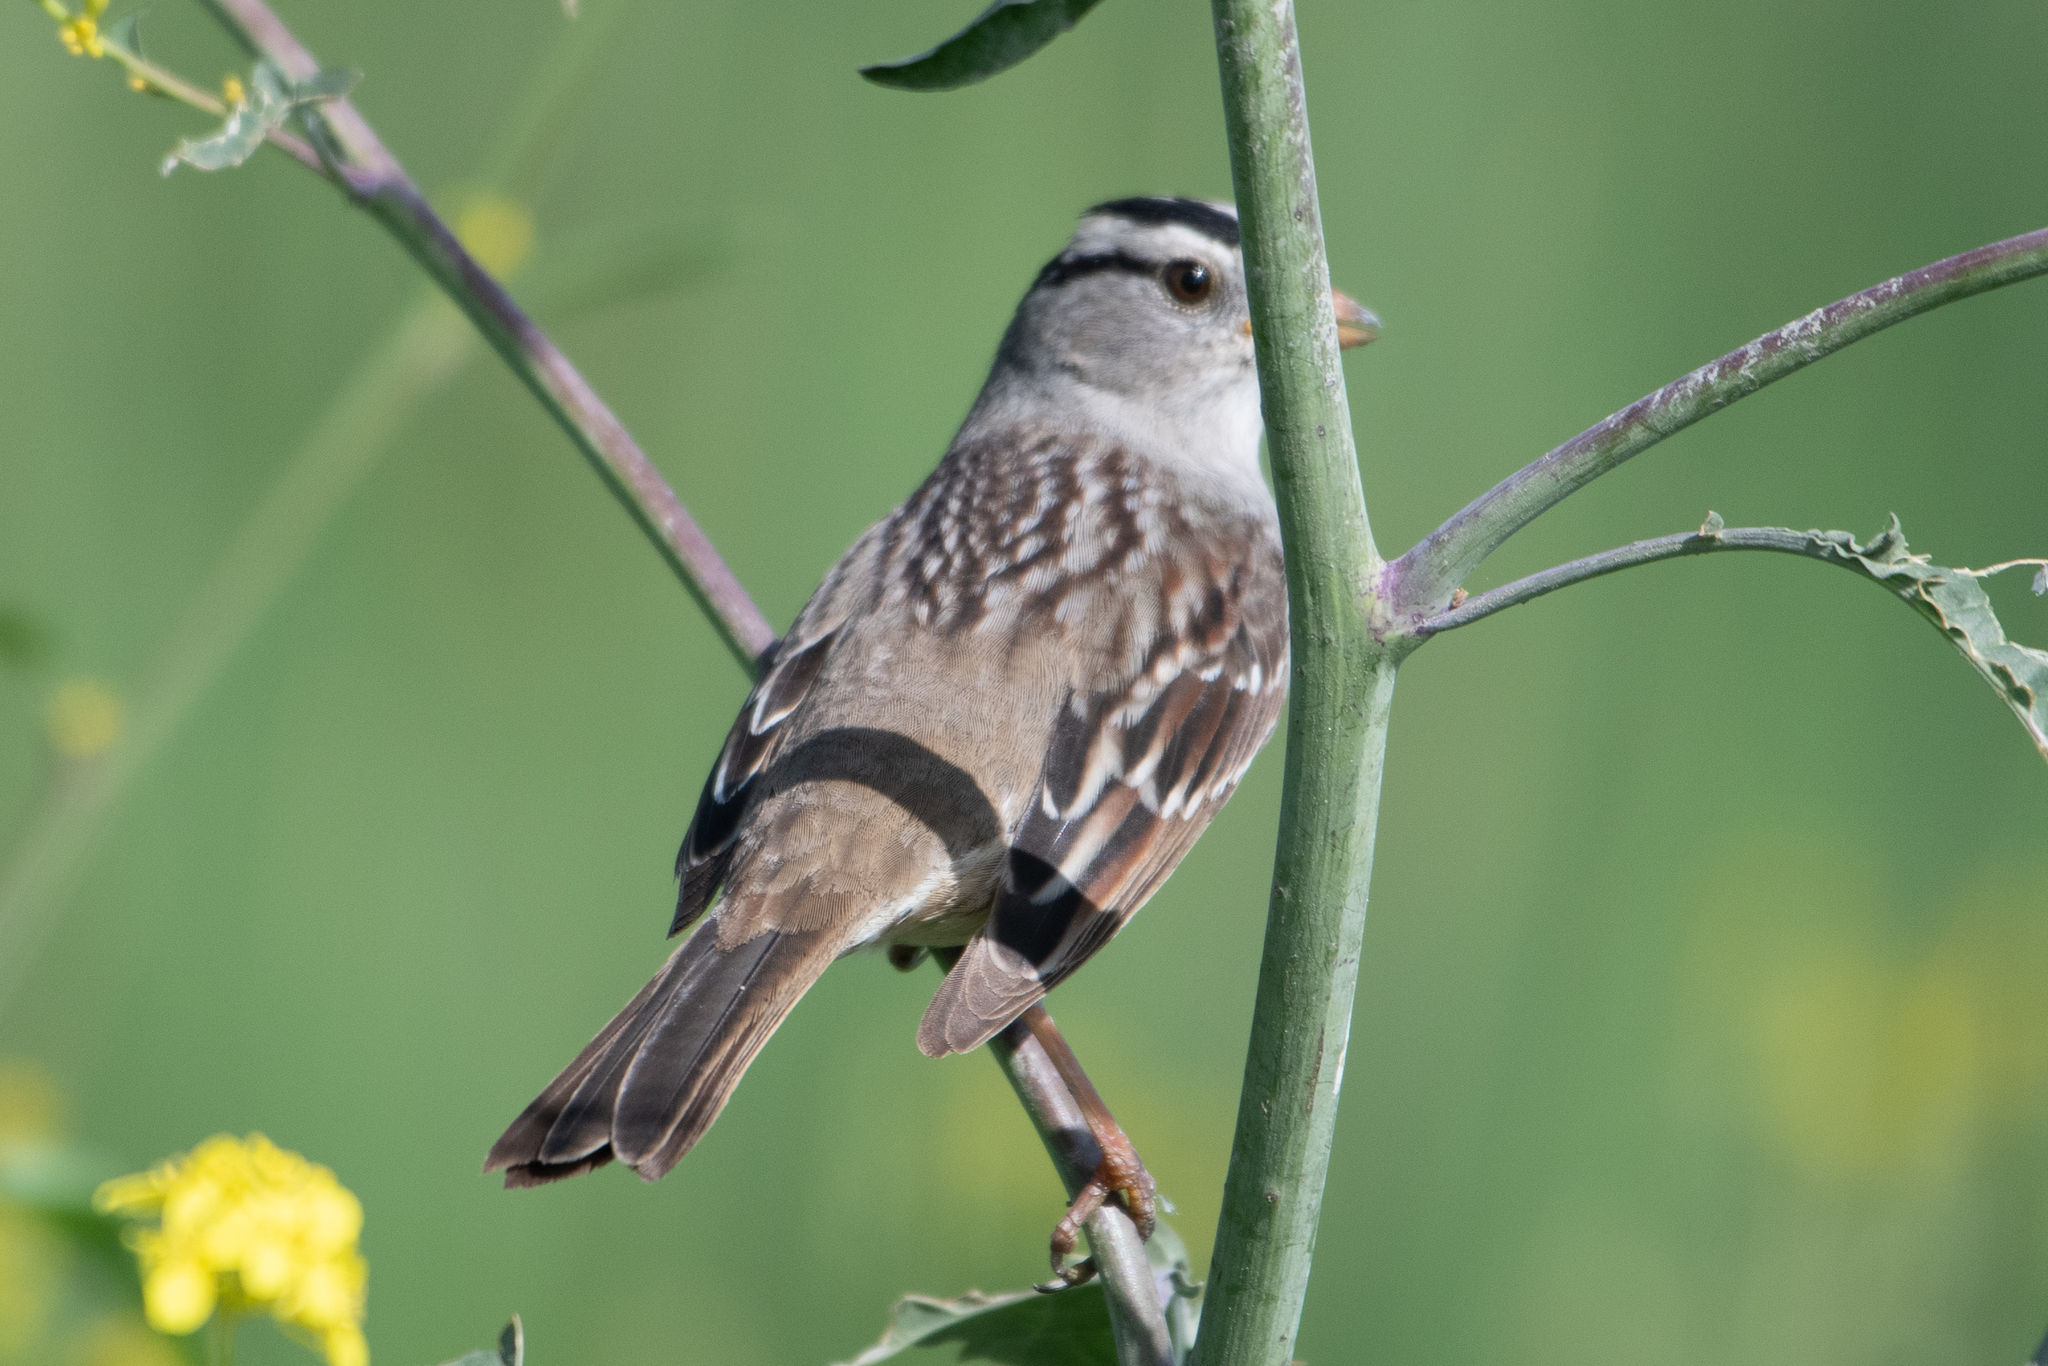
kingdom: Animalia
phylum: Chordata
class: Aves
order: Passeriformes
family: Passerellidae
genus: Zonotrichia
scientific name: Zonotrichia leucophrys
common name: White-crowned sparrow
